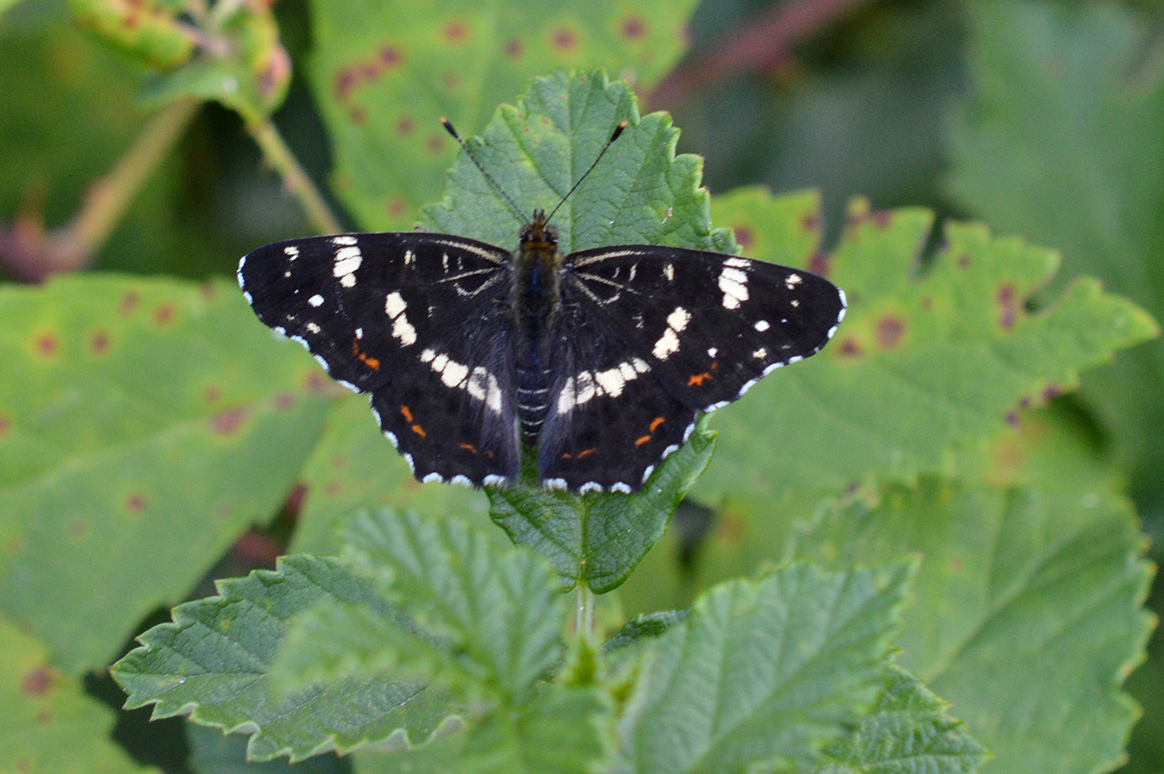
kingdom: Animalia
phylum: Arthropoda
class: Insecta
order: Lepidoptera
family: Nymphalidae
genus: Araschnia
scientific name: Araschnia levana
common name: Map butterfly
